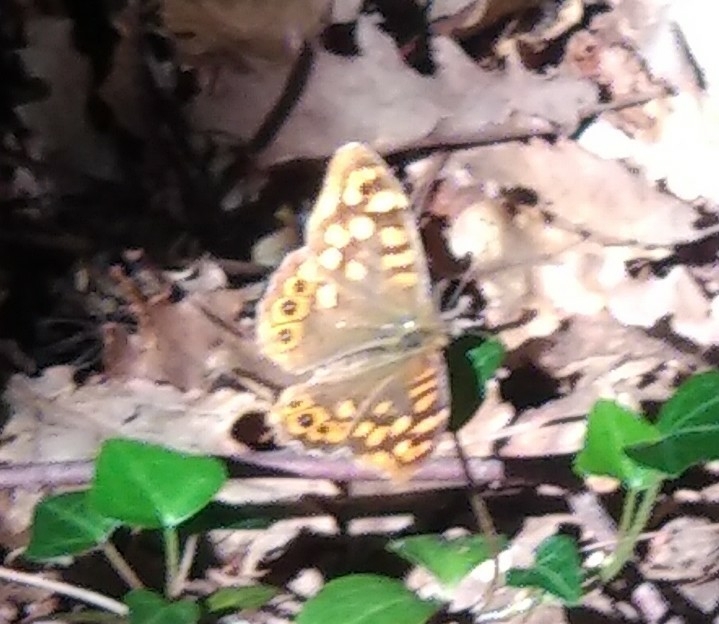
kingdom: Animalia
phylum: Arthropoda
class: Insecta
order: Lepidoptera
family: Nymphalidae
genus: Pararge
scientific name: Pararge aegeria
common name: Speckled wood
